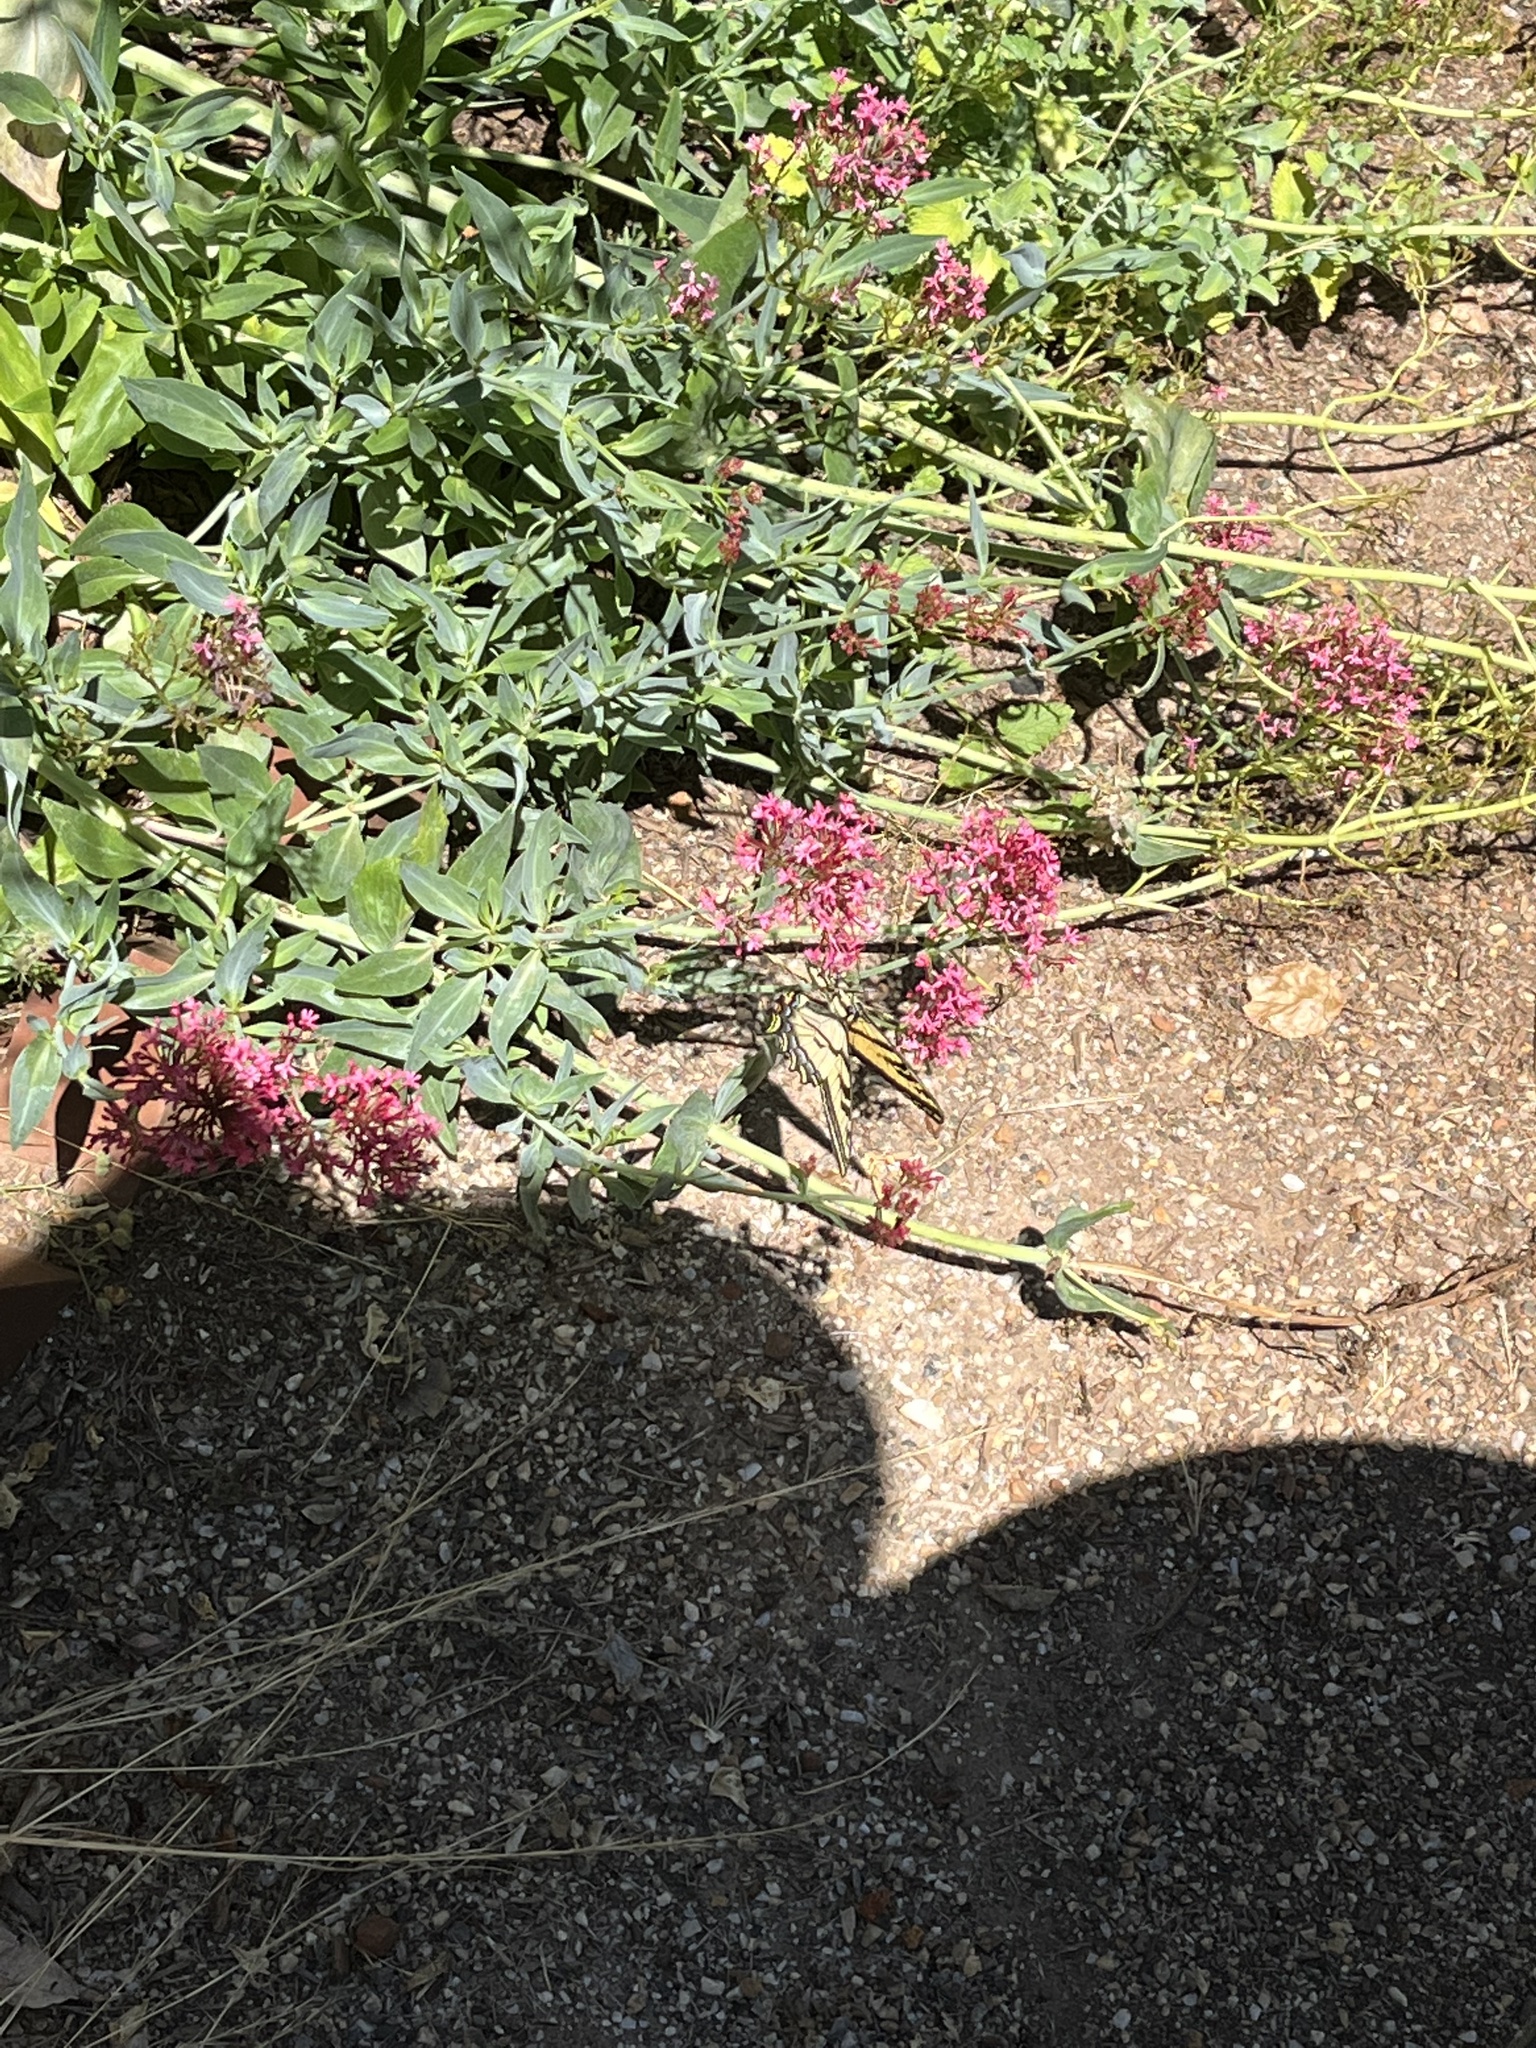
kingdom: Animalia
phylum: Arthropoda
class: Insecta
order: Lepidoptera
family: Papilionidae
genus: Papilio
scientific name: Papilio rutulus
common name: Western tiger swallowtail
